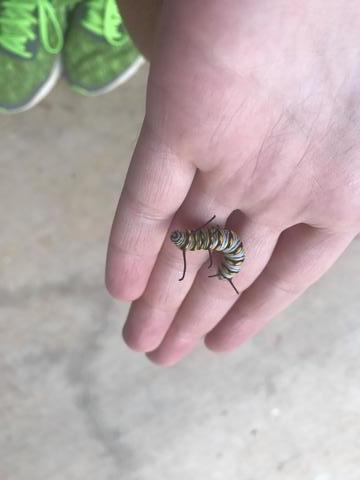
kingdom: Animalia
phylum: Arthropoda
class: Insecta
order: Lepidoptera
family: Nymphalidae
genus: Danaus
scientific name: Danaus gilippus
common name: Queen
